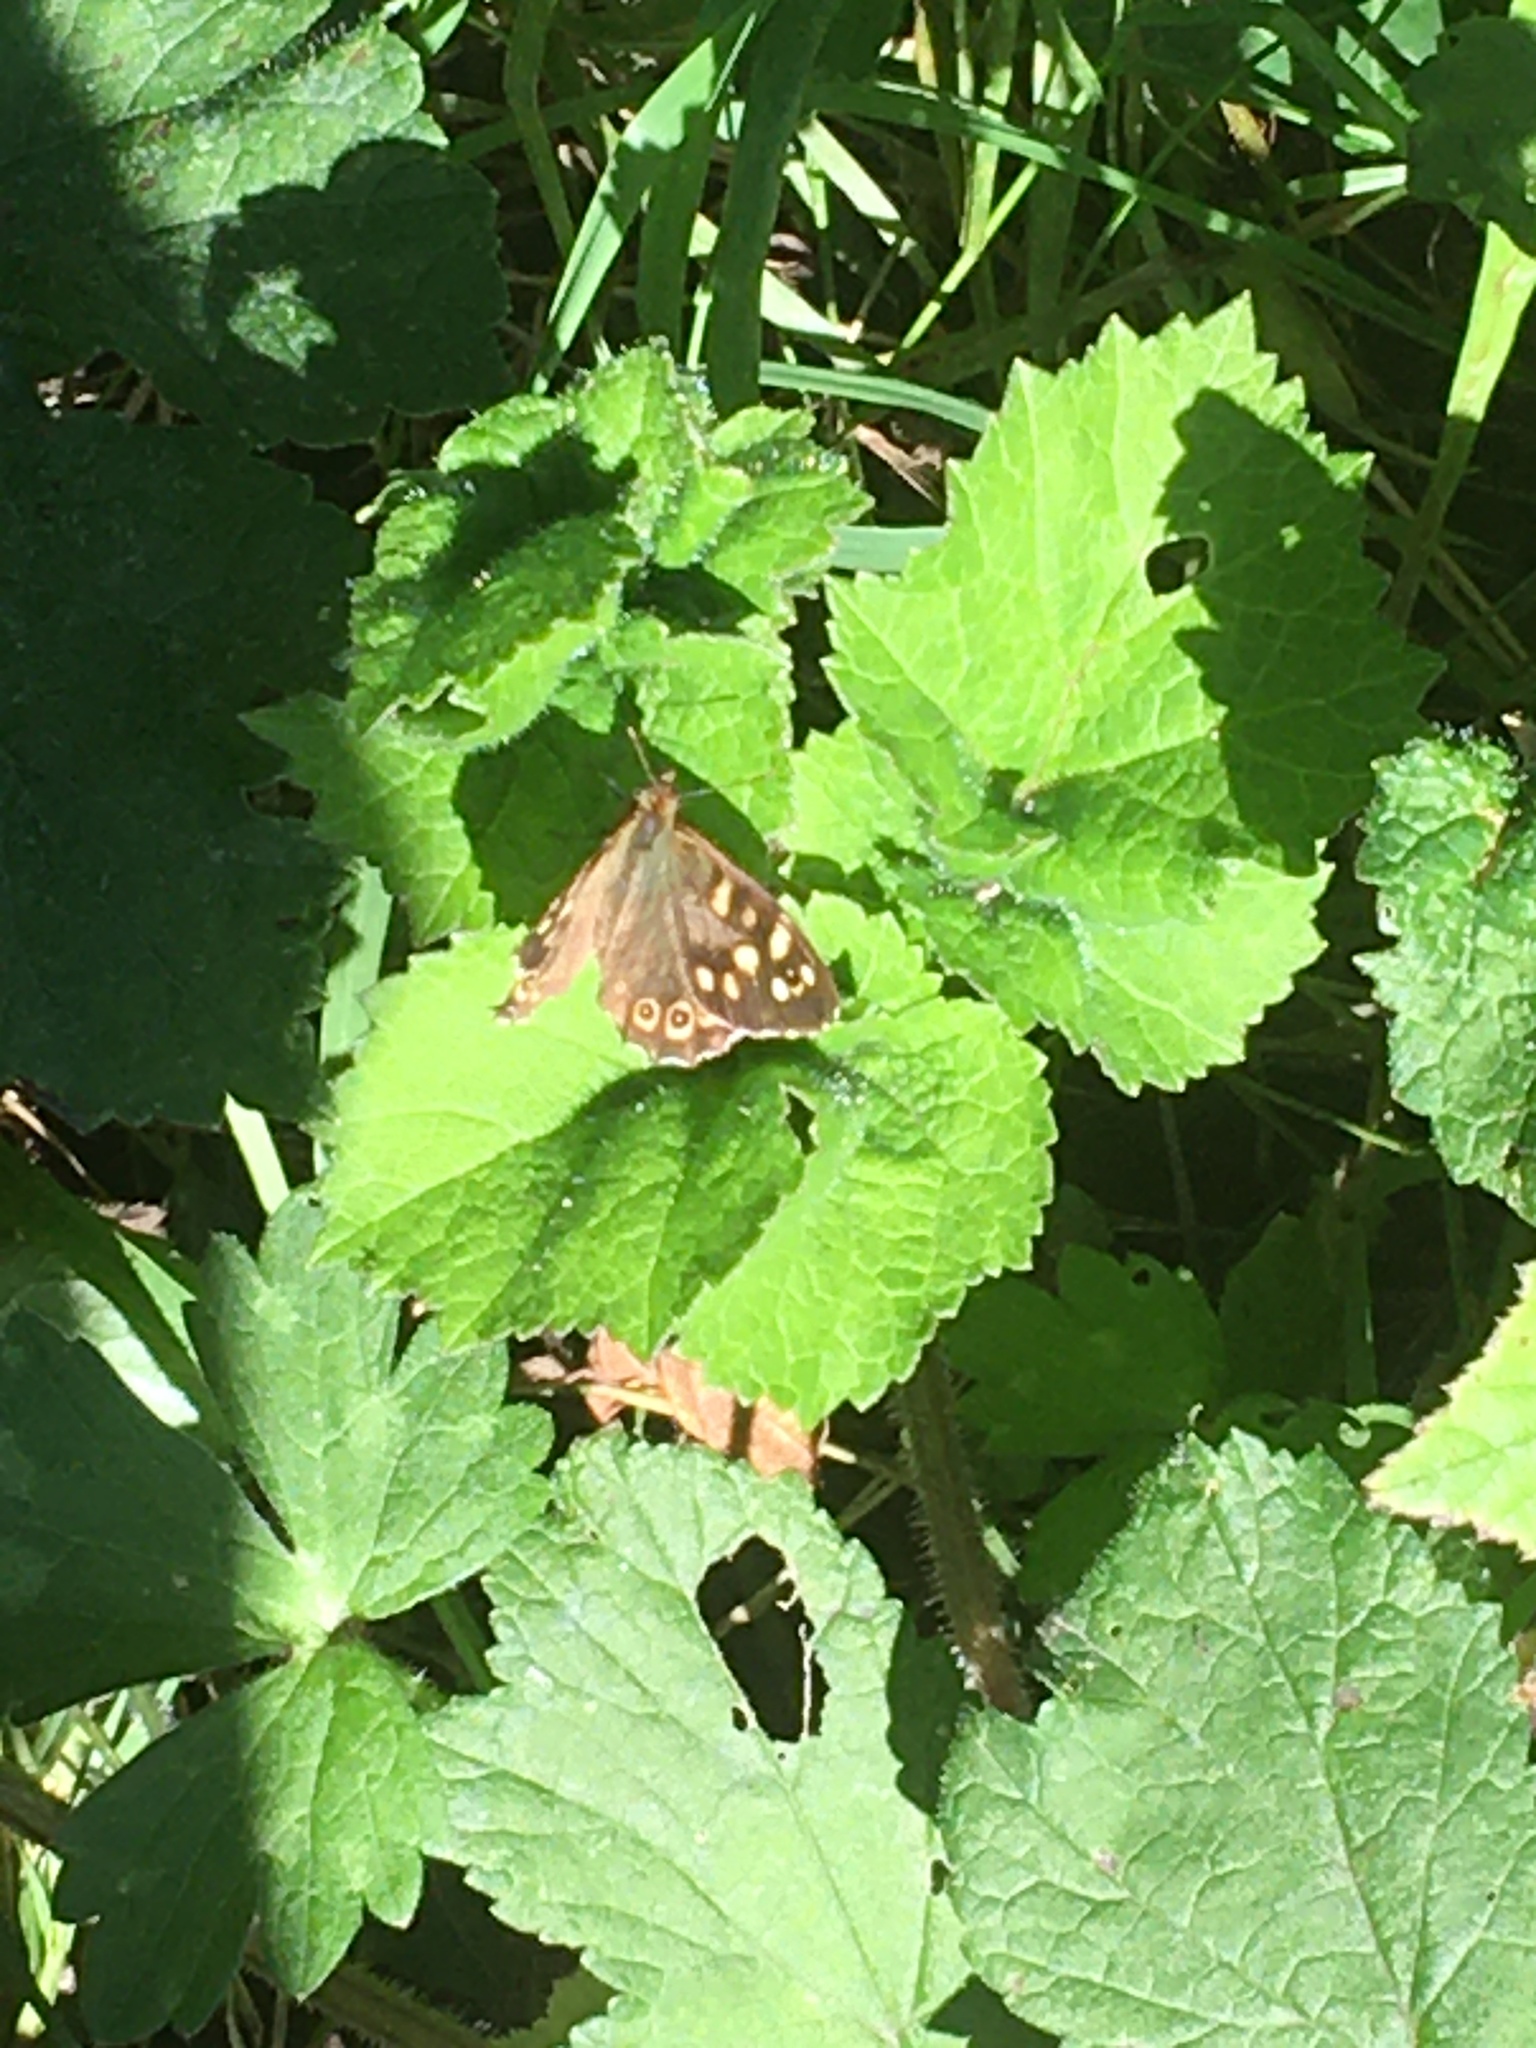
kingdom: Animalia
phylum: Arthropoda
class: Insecta
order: Lepidoptera
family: Nymphalidae
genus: Pararge
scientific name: Pararge aegeria
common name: Speckled wood
